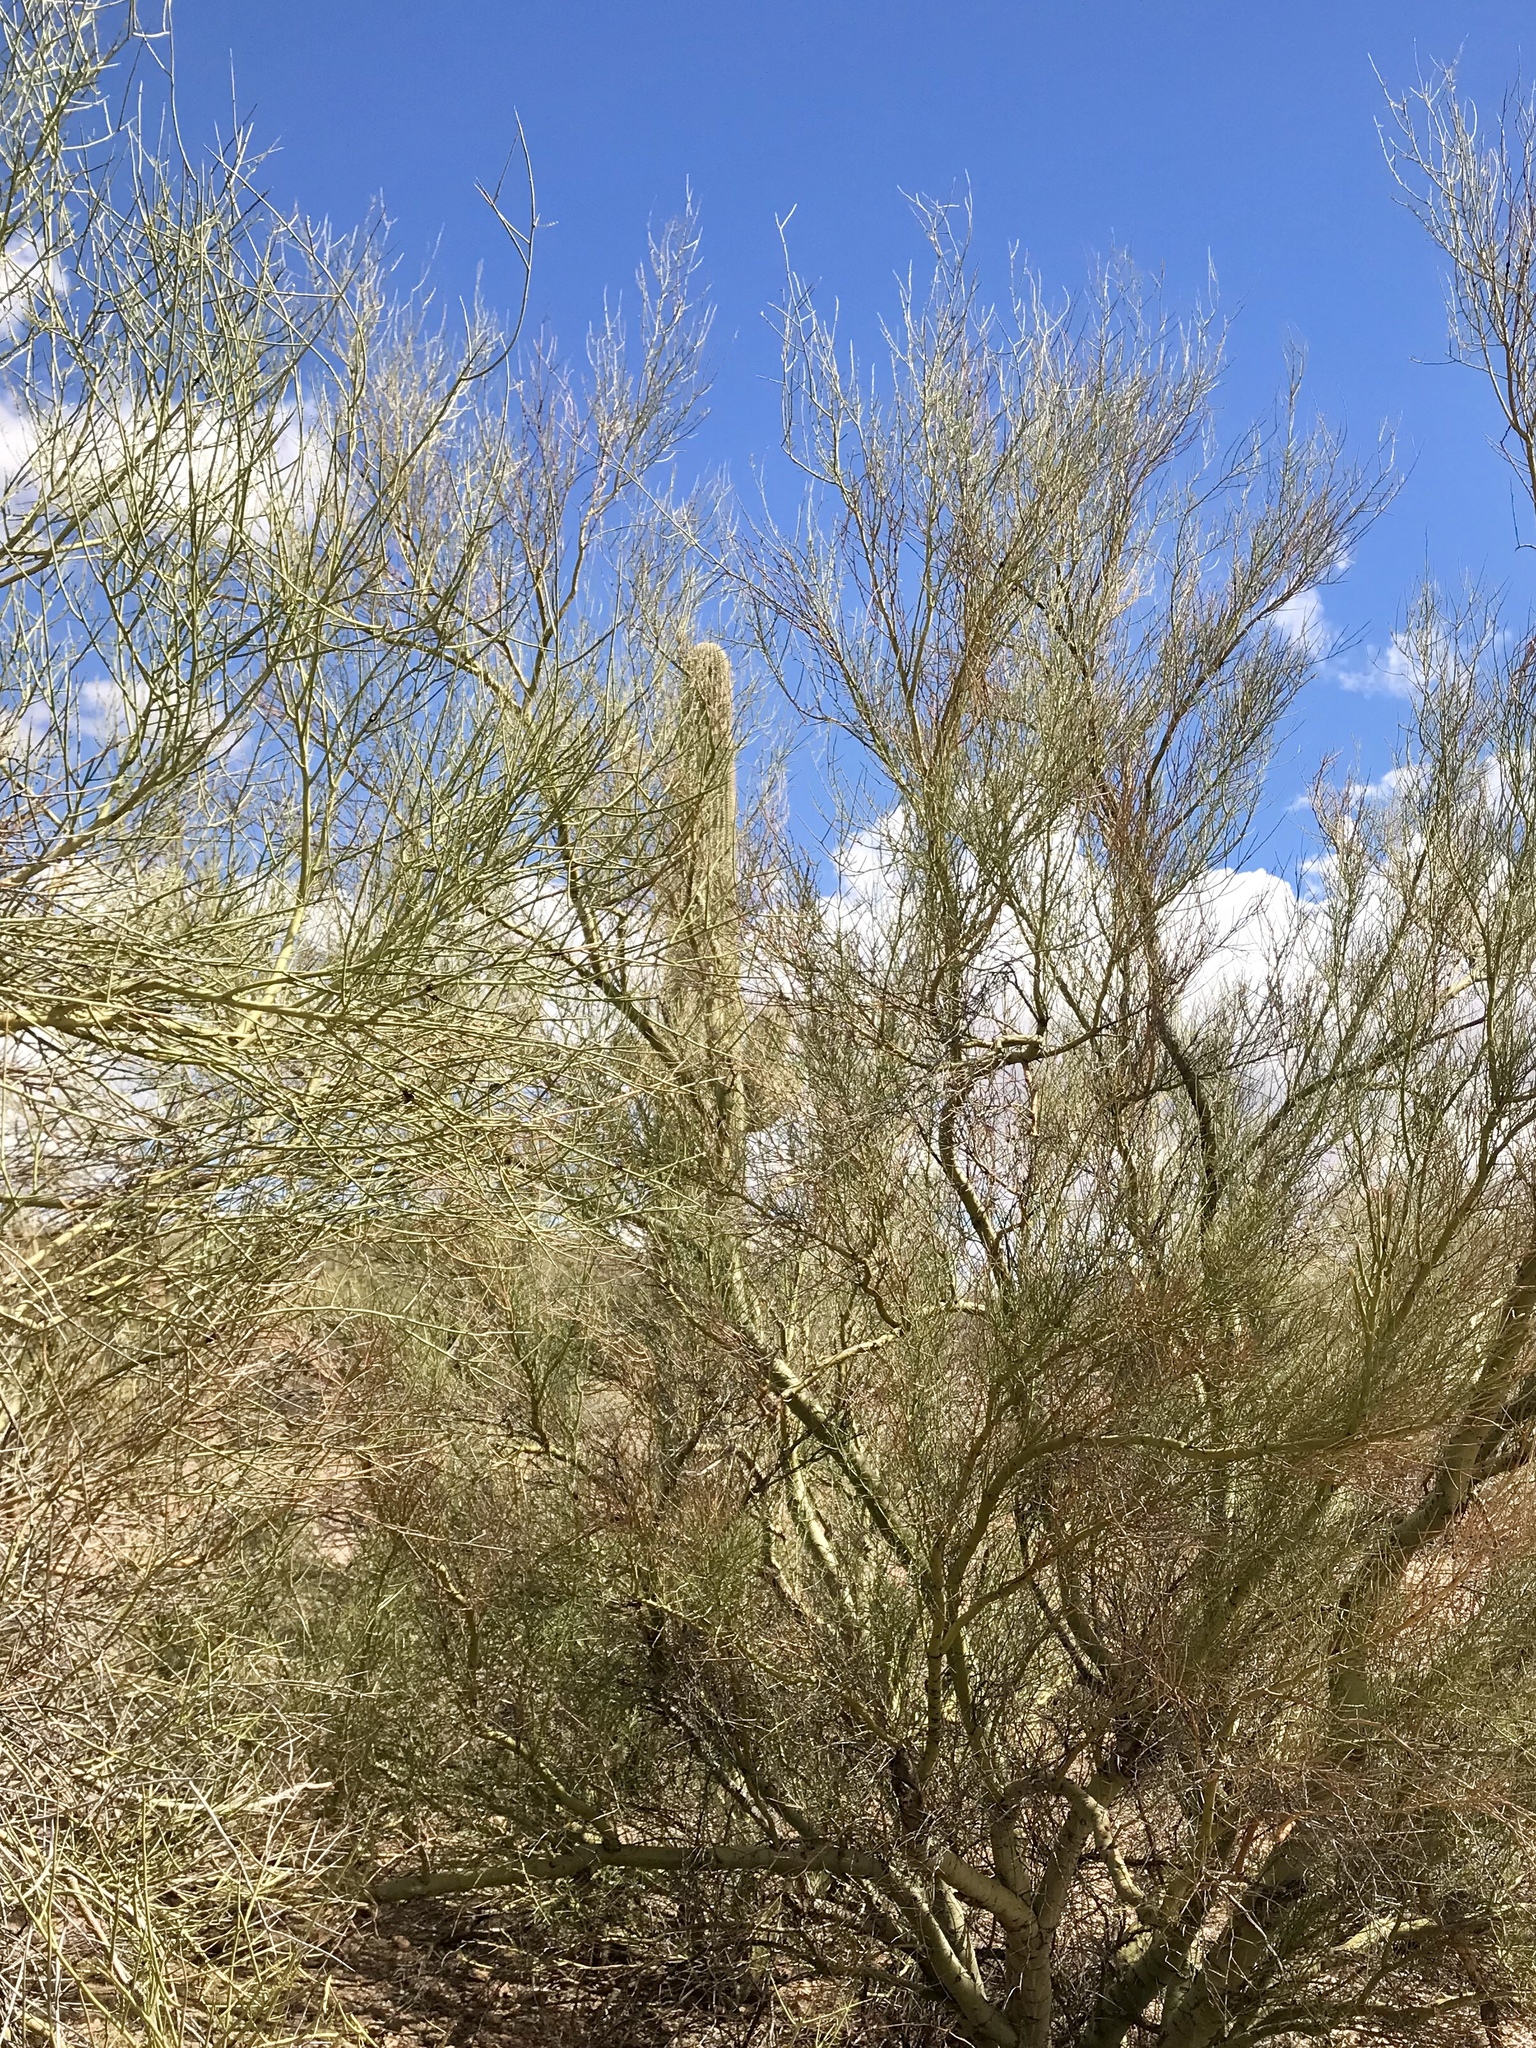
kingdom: Plantae
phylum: Tracheophyta
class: Magnoliopsida
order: Fabales
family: Fabaceae
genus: Parkinsonia
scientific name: Parkinsonia microphylla
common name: Yellow paloverde
